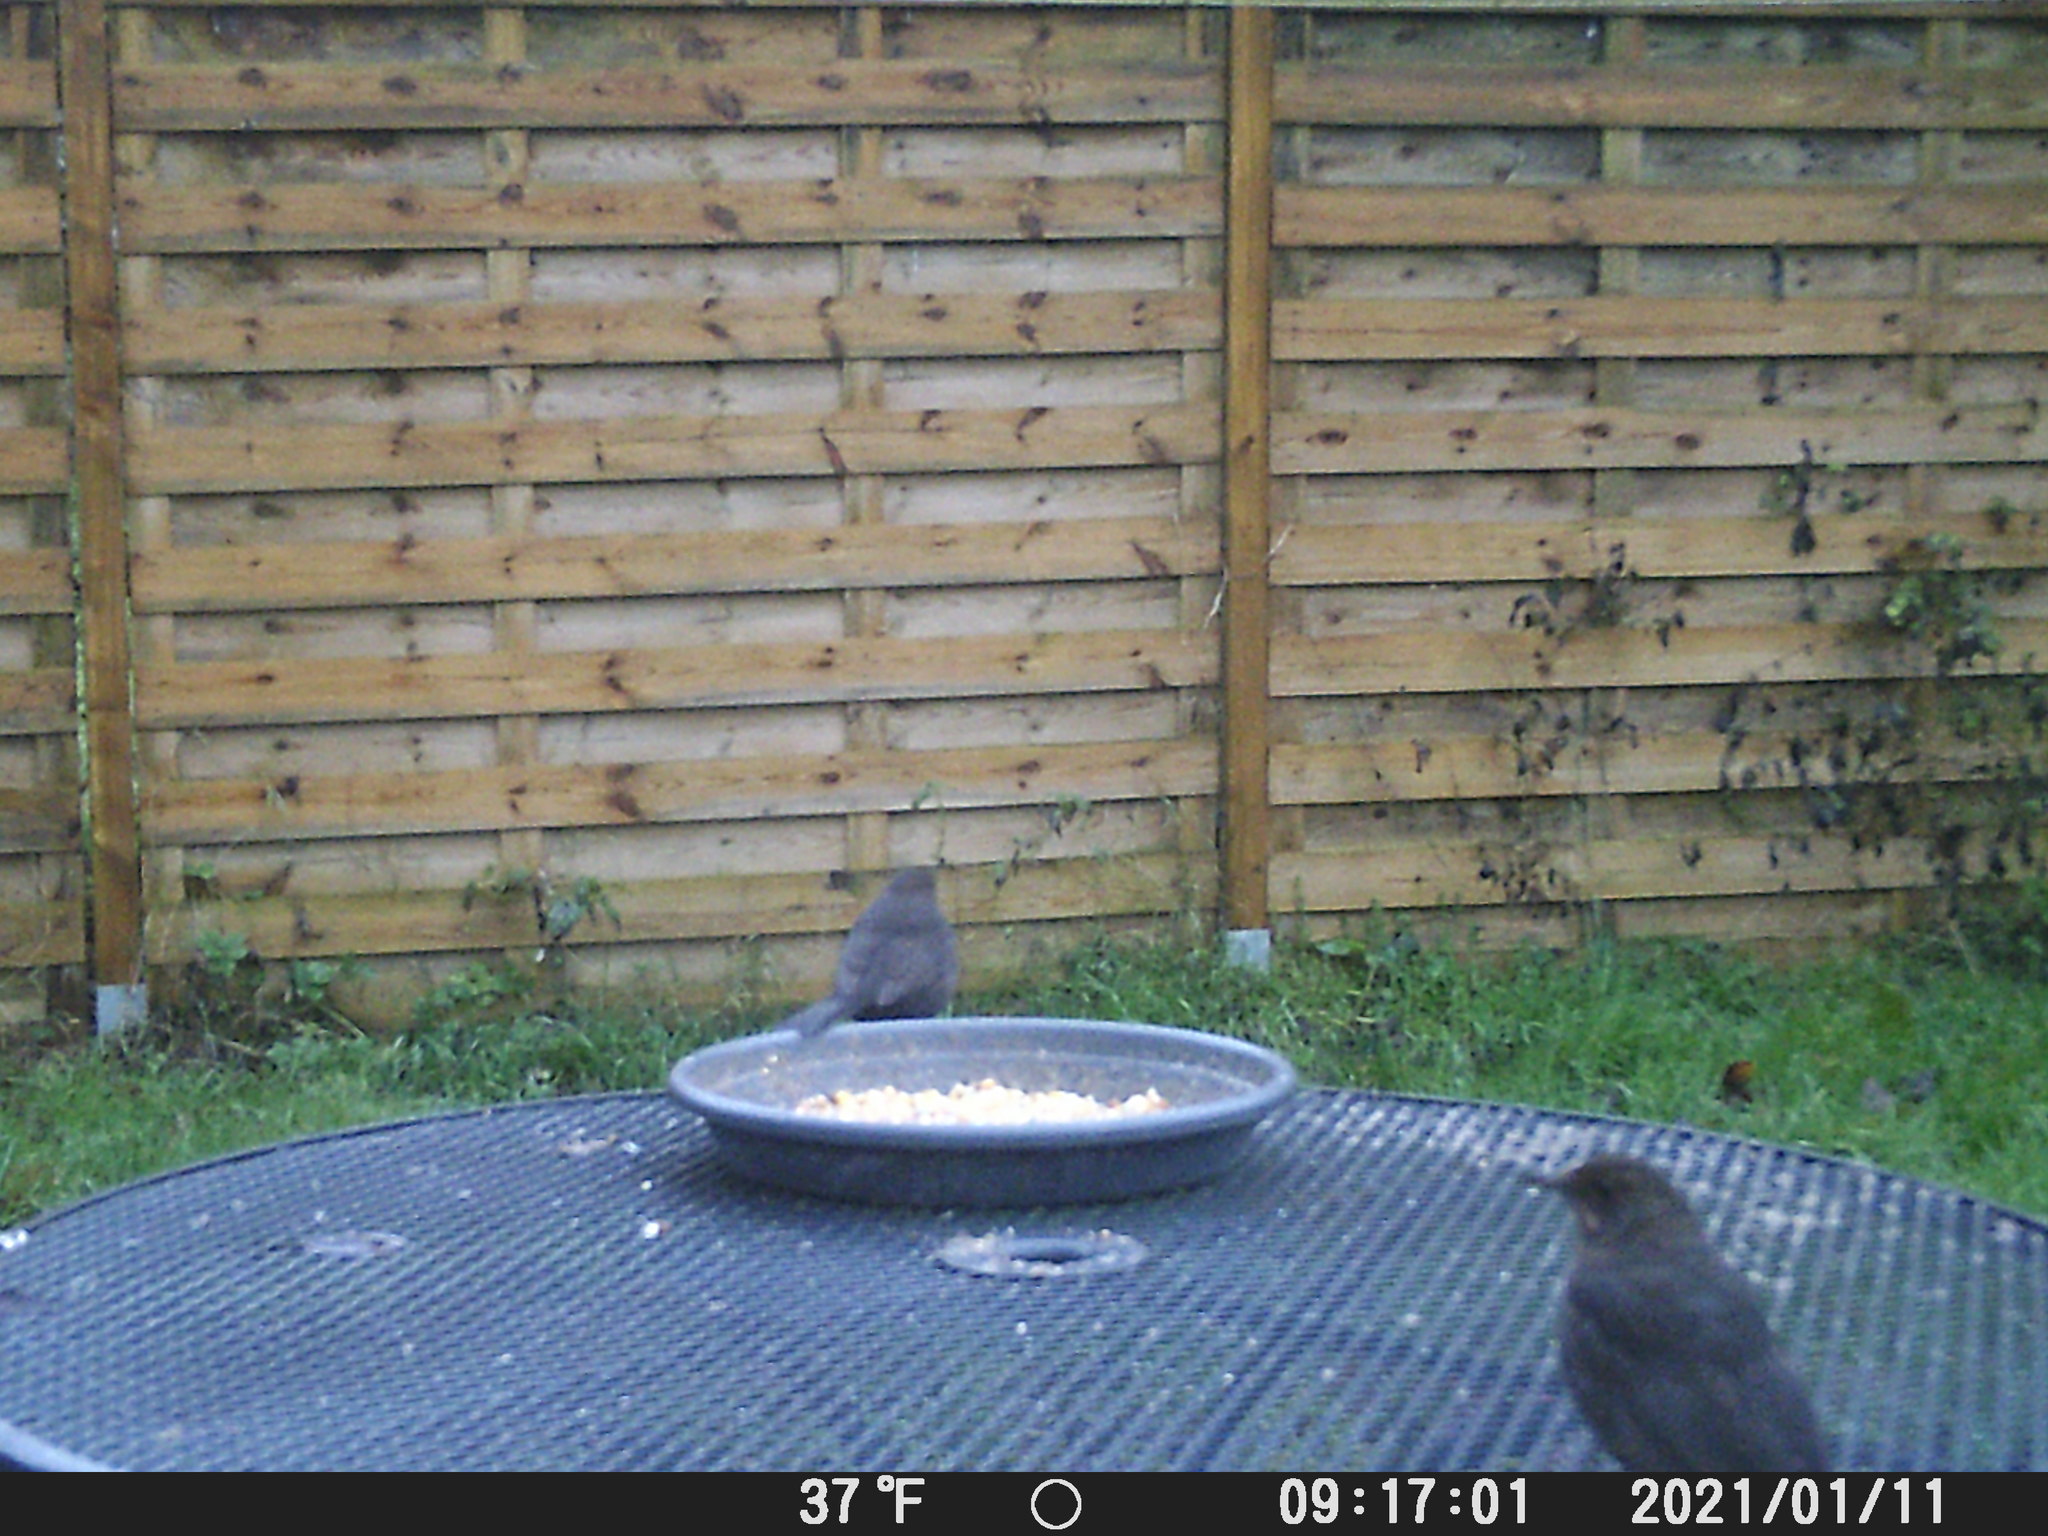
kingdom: Animalia
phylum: Chordata
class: Aves
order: Passeriformes
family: Turdidae
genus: Turdus
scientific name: Turdus merula
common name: Common blackbird
